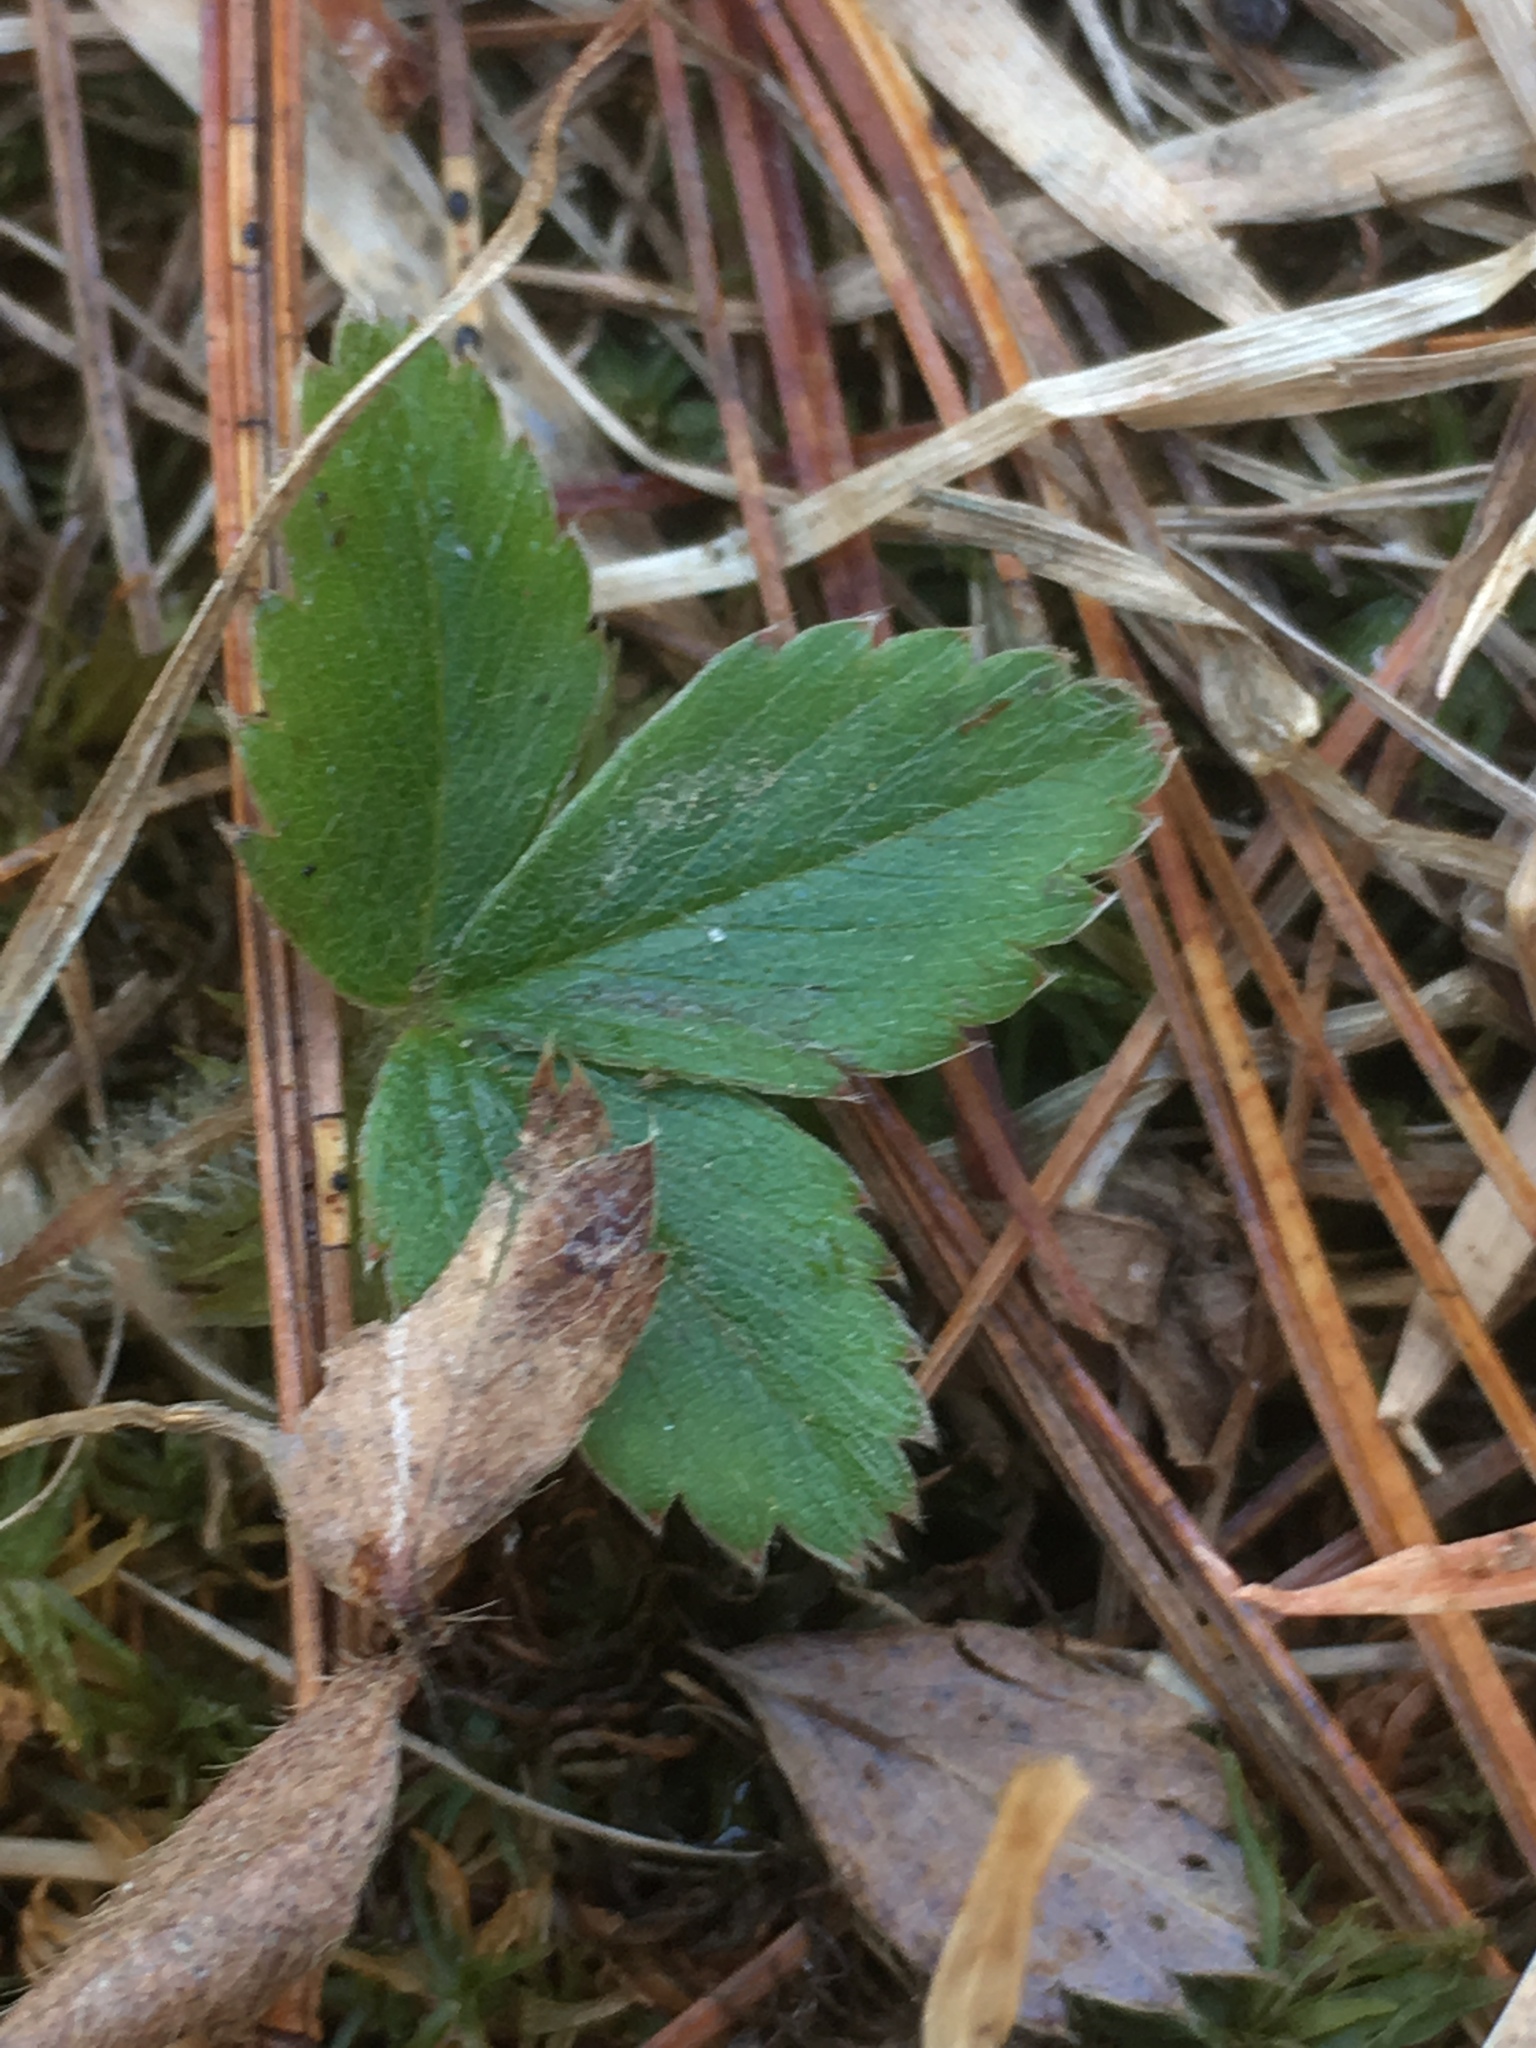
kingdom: Plantae
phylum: Tracheophyta
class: Magnoliopsida
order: Rosales
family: Rosaceae
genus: Fragaria
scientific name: Fragaria virginiana
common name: Thickleaved wild strawberry
